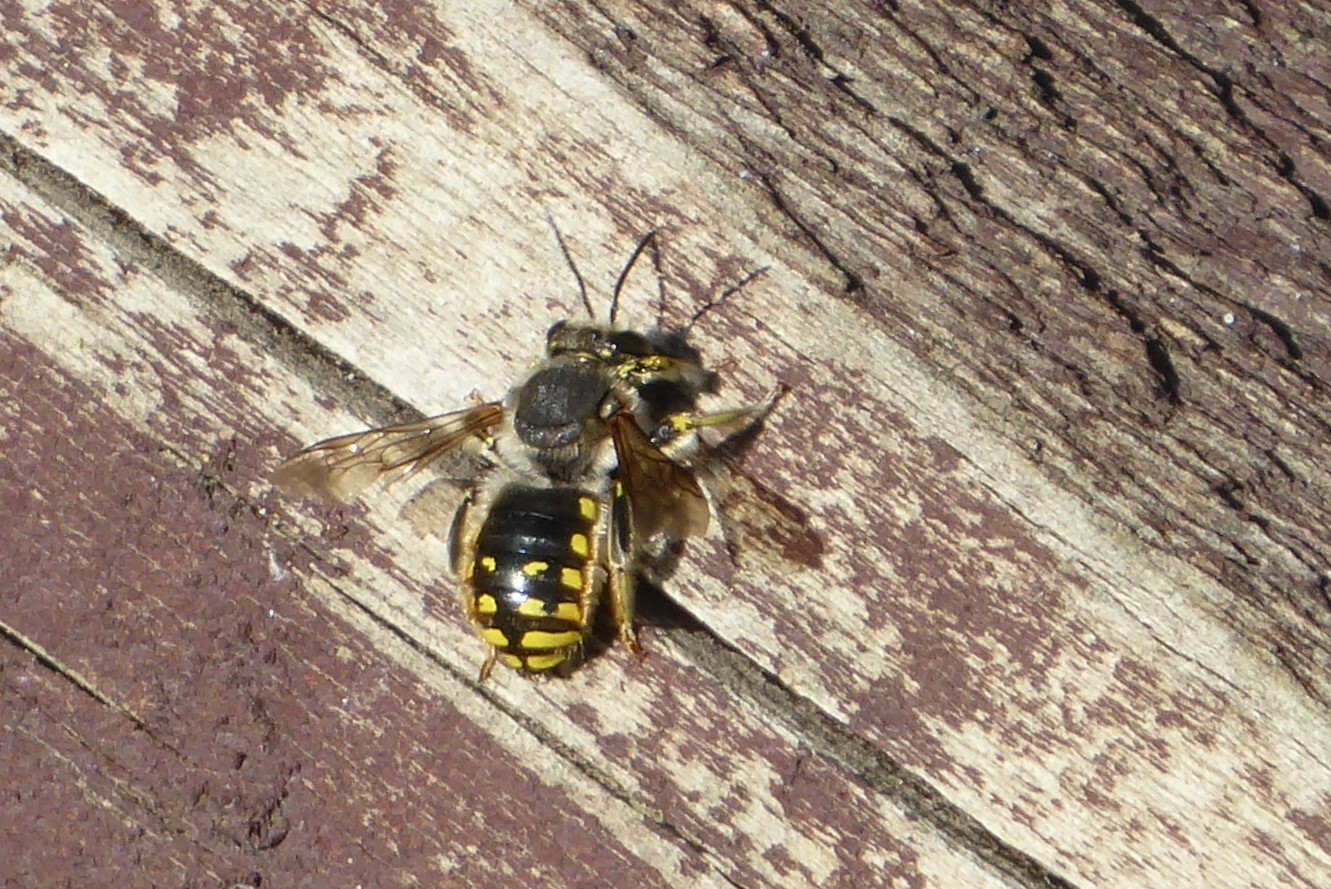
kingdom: Animalia
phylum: Arthropoda
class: Insecta
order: Hymenoptera
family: Megachilidae
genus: Anthidium
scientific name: Anthidium manicatum
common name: Wool carder bee
